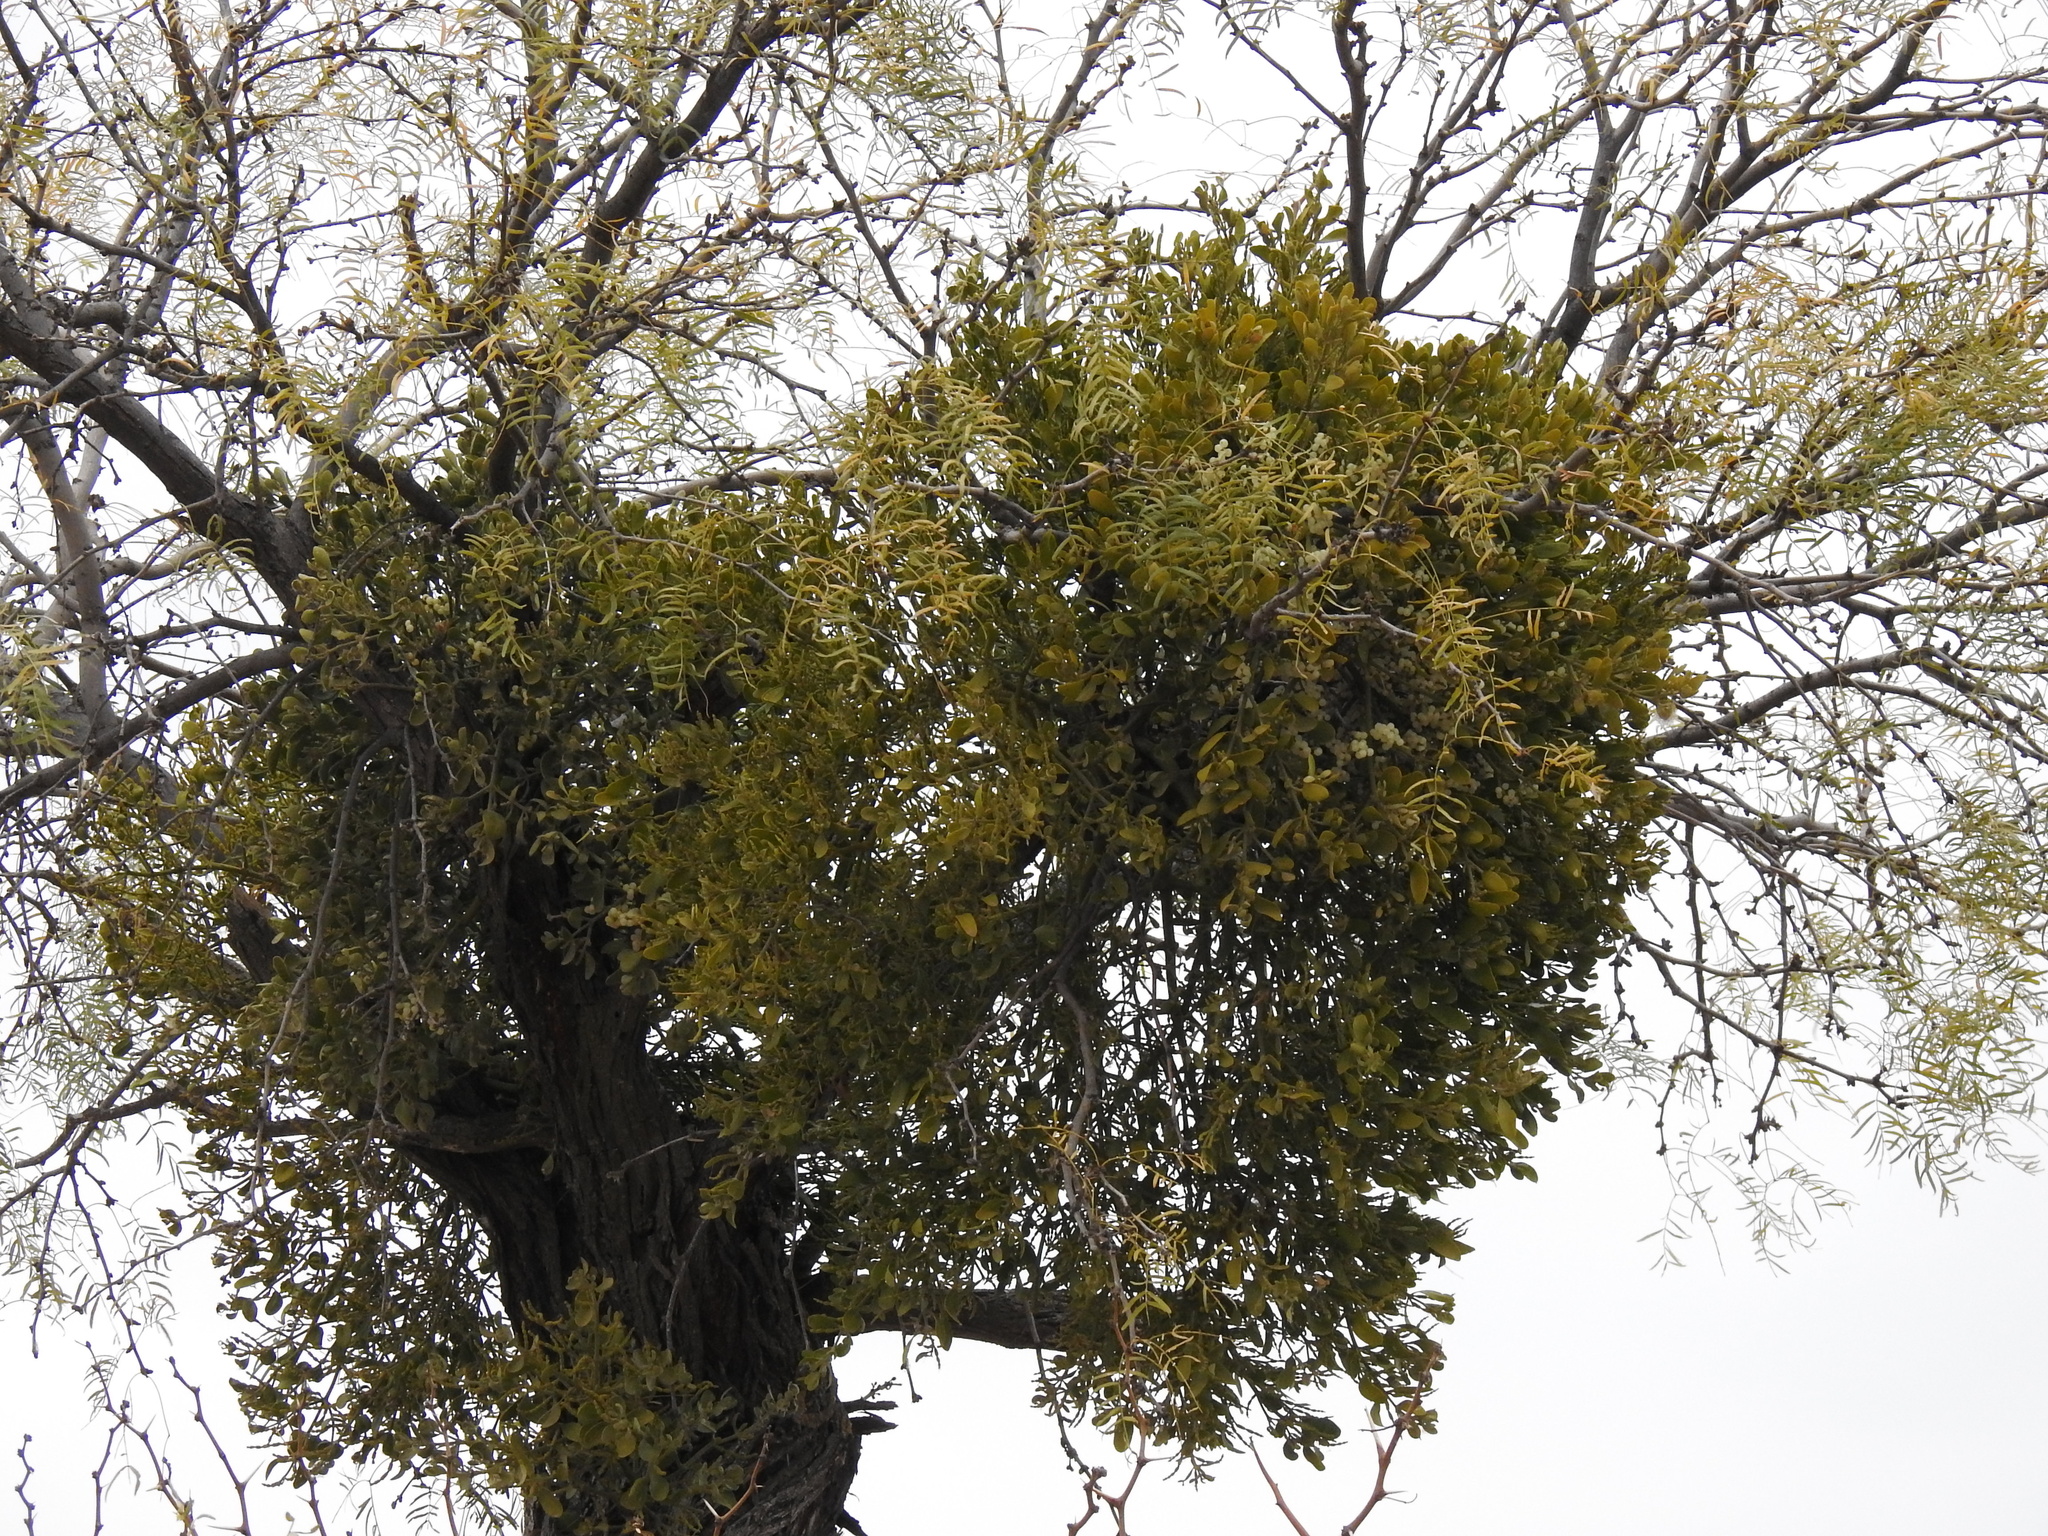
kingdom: Plantae
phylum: Tracheophyta
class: Magnoliopsida
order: Santalales
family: Viscaceae
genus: Phoradendron
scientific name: Phoradendron leucarpum
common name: Pacific mistletoe
